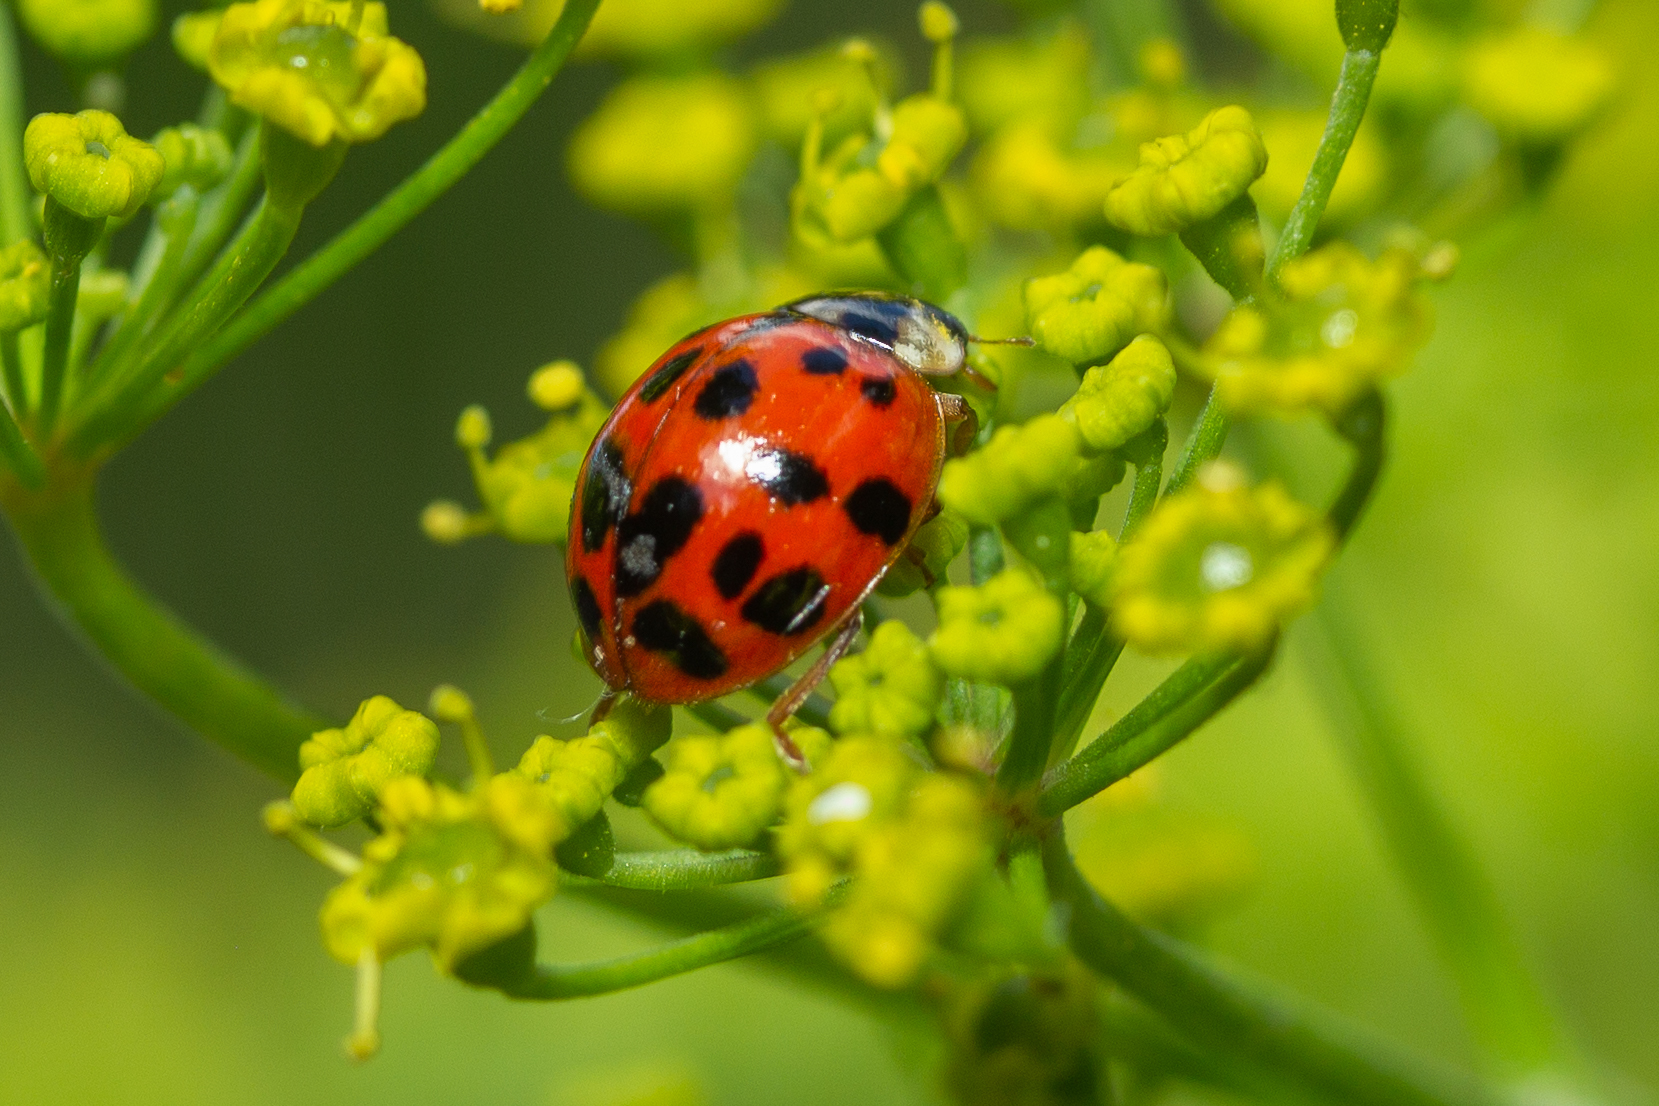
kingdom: Animalia
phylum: Arthropoda
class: Insecta
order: Coleoptera
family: Coccinellidae
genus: Harmonia
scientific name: Harmonia axyridis
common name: Harlequin ladybird
